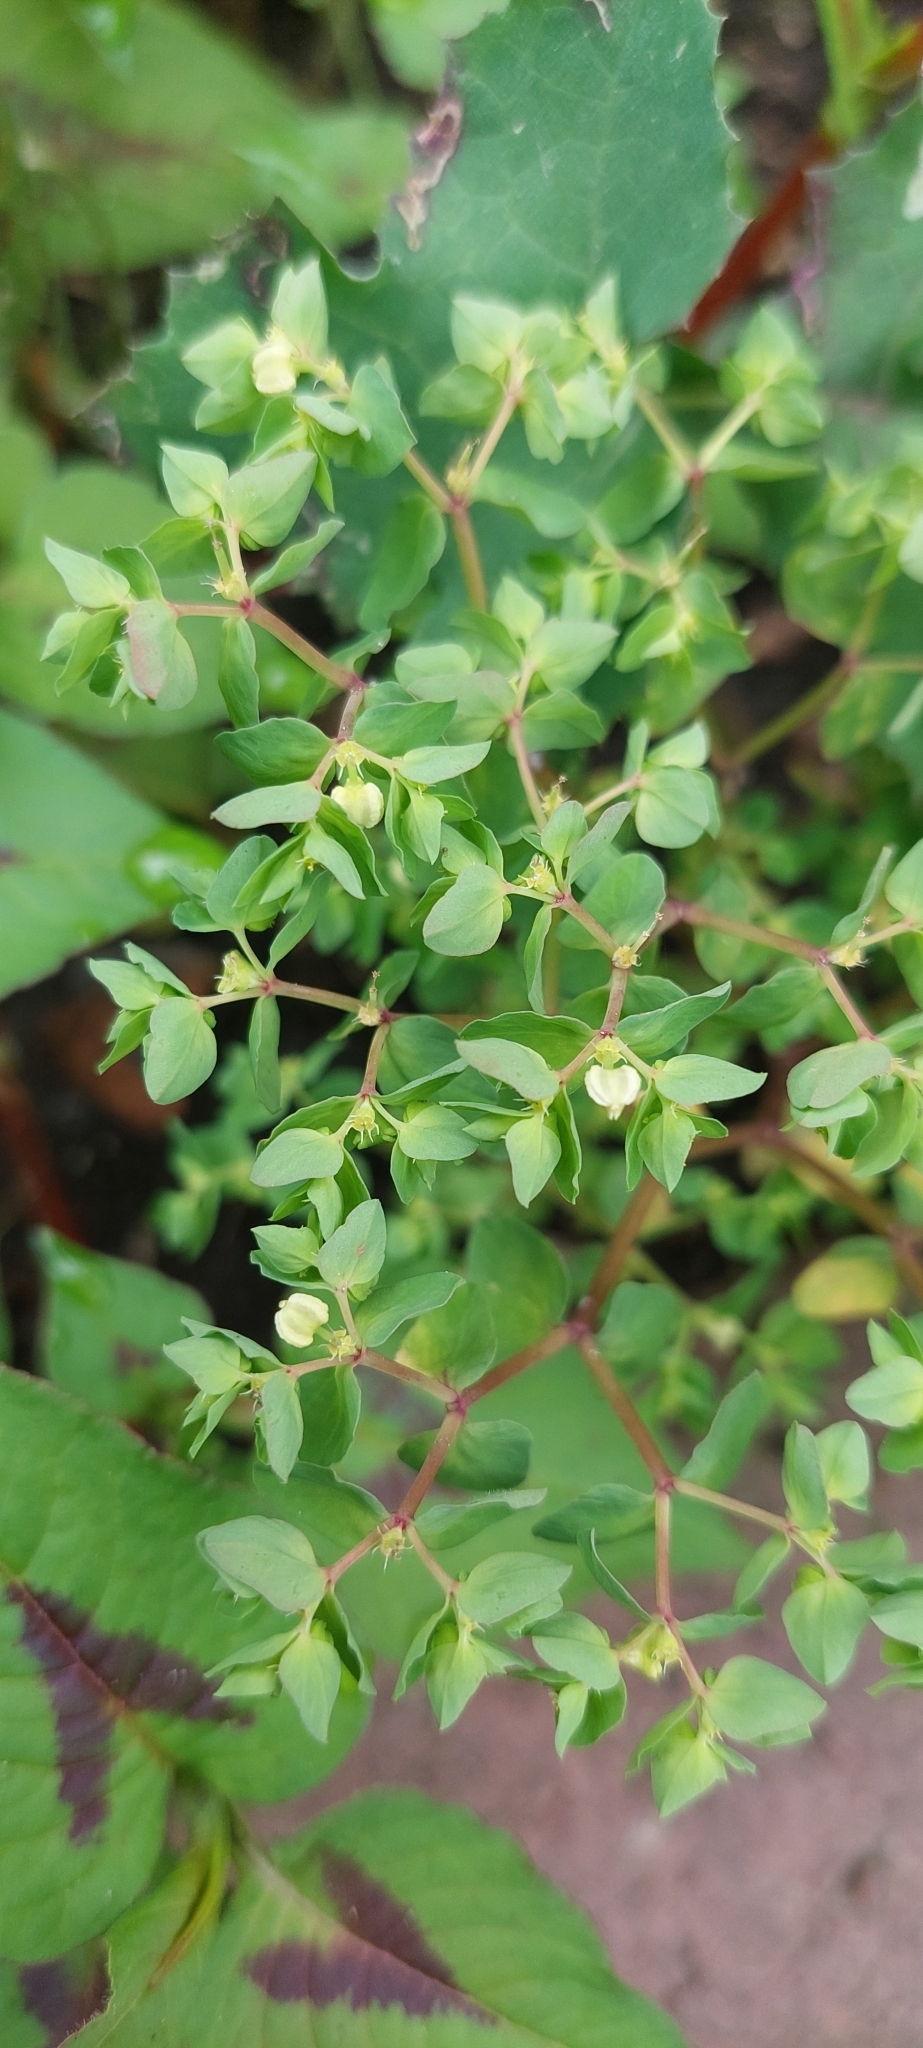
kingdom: Plantae
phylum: Tracheophyta
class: Magnoliopsida
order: Malpighiales
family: Euphorbiaceae
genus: Euphorbia
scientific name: Euphorbia peplus
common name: Petty spurge
